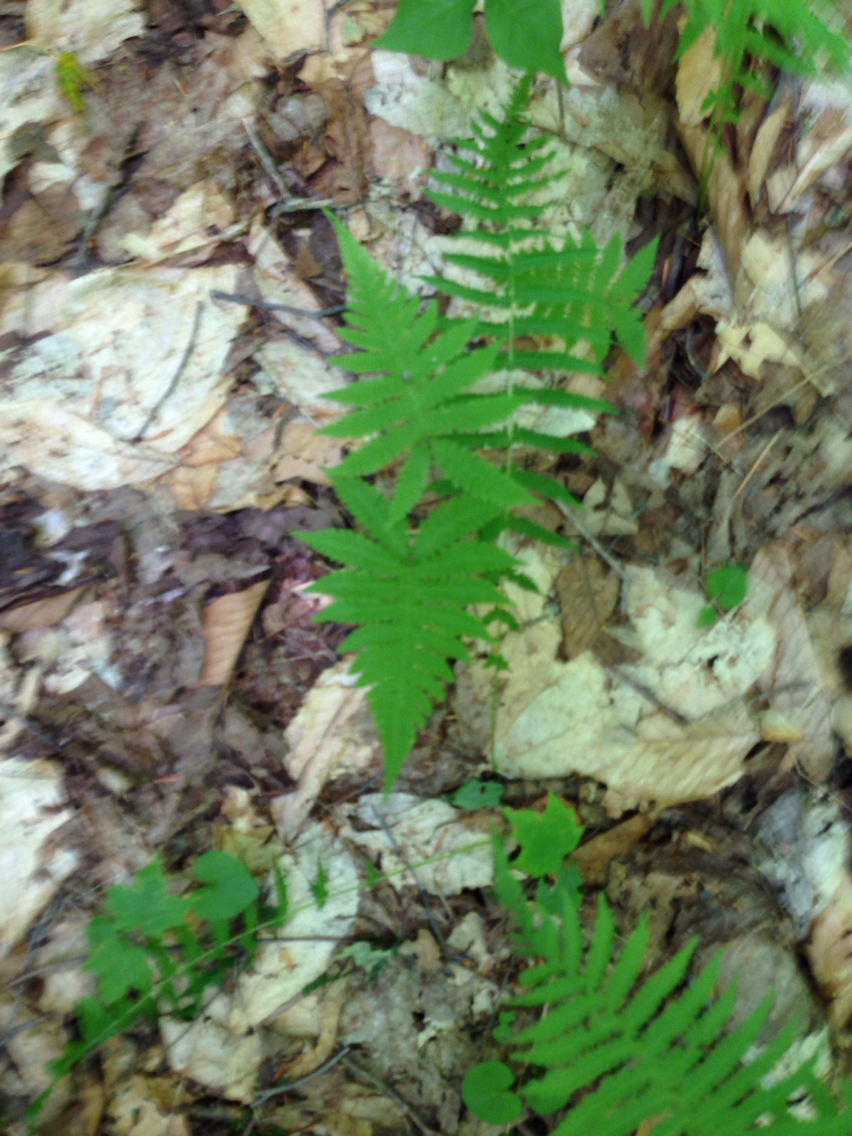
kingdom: Plantae
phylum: Tracheophyta
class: Polypodiopsida
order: Polypodiales
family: Thelypteridaceae
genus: Phegopteris
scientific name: Phegopteris connectilis
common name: Beech fern
